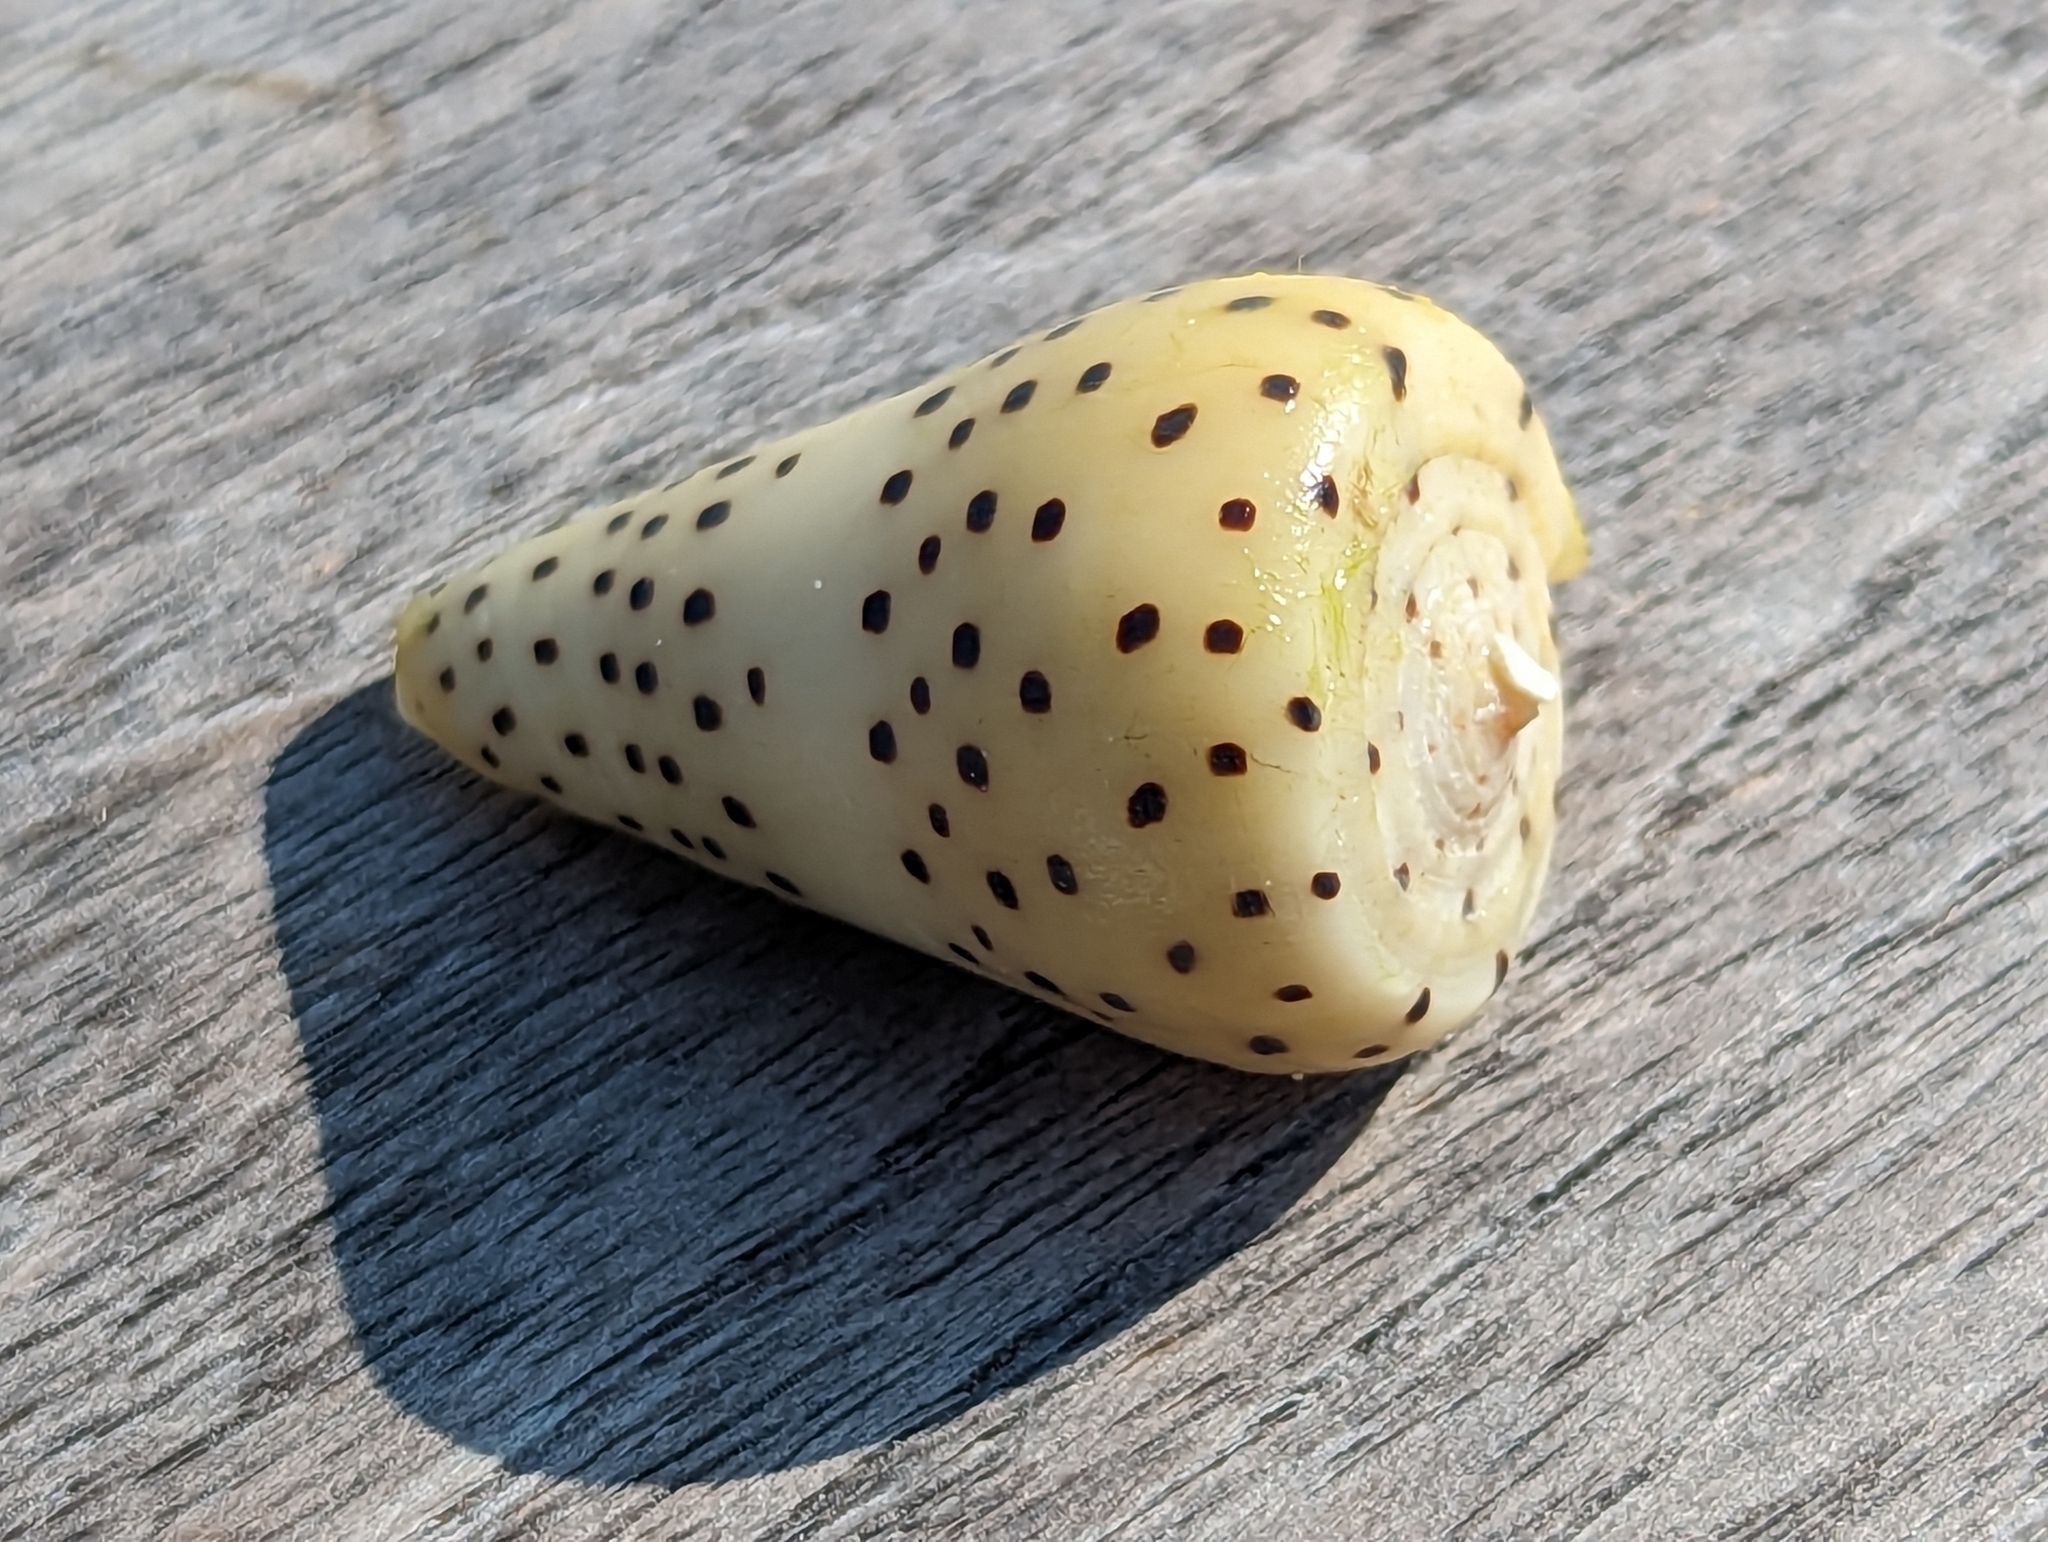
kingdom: Animalia
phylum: Mollusca
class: Gastropoda
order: Neogastropoda
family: Conidae
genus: Conus
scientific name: Conus eburneus
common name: Ivory cone
